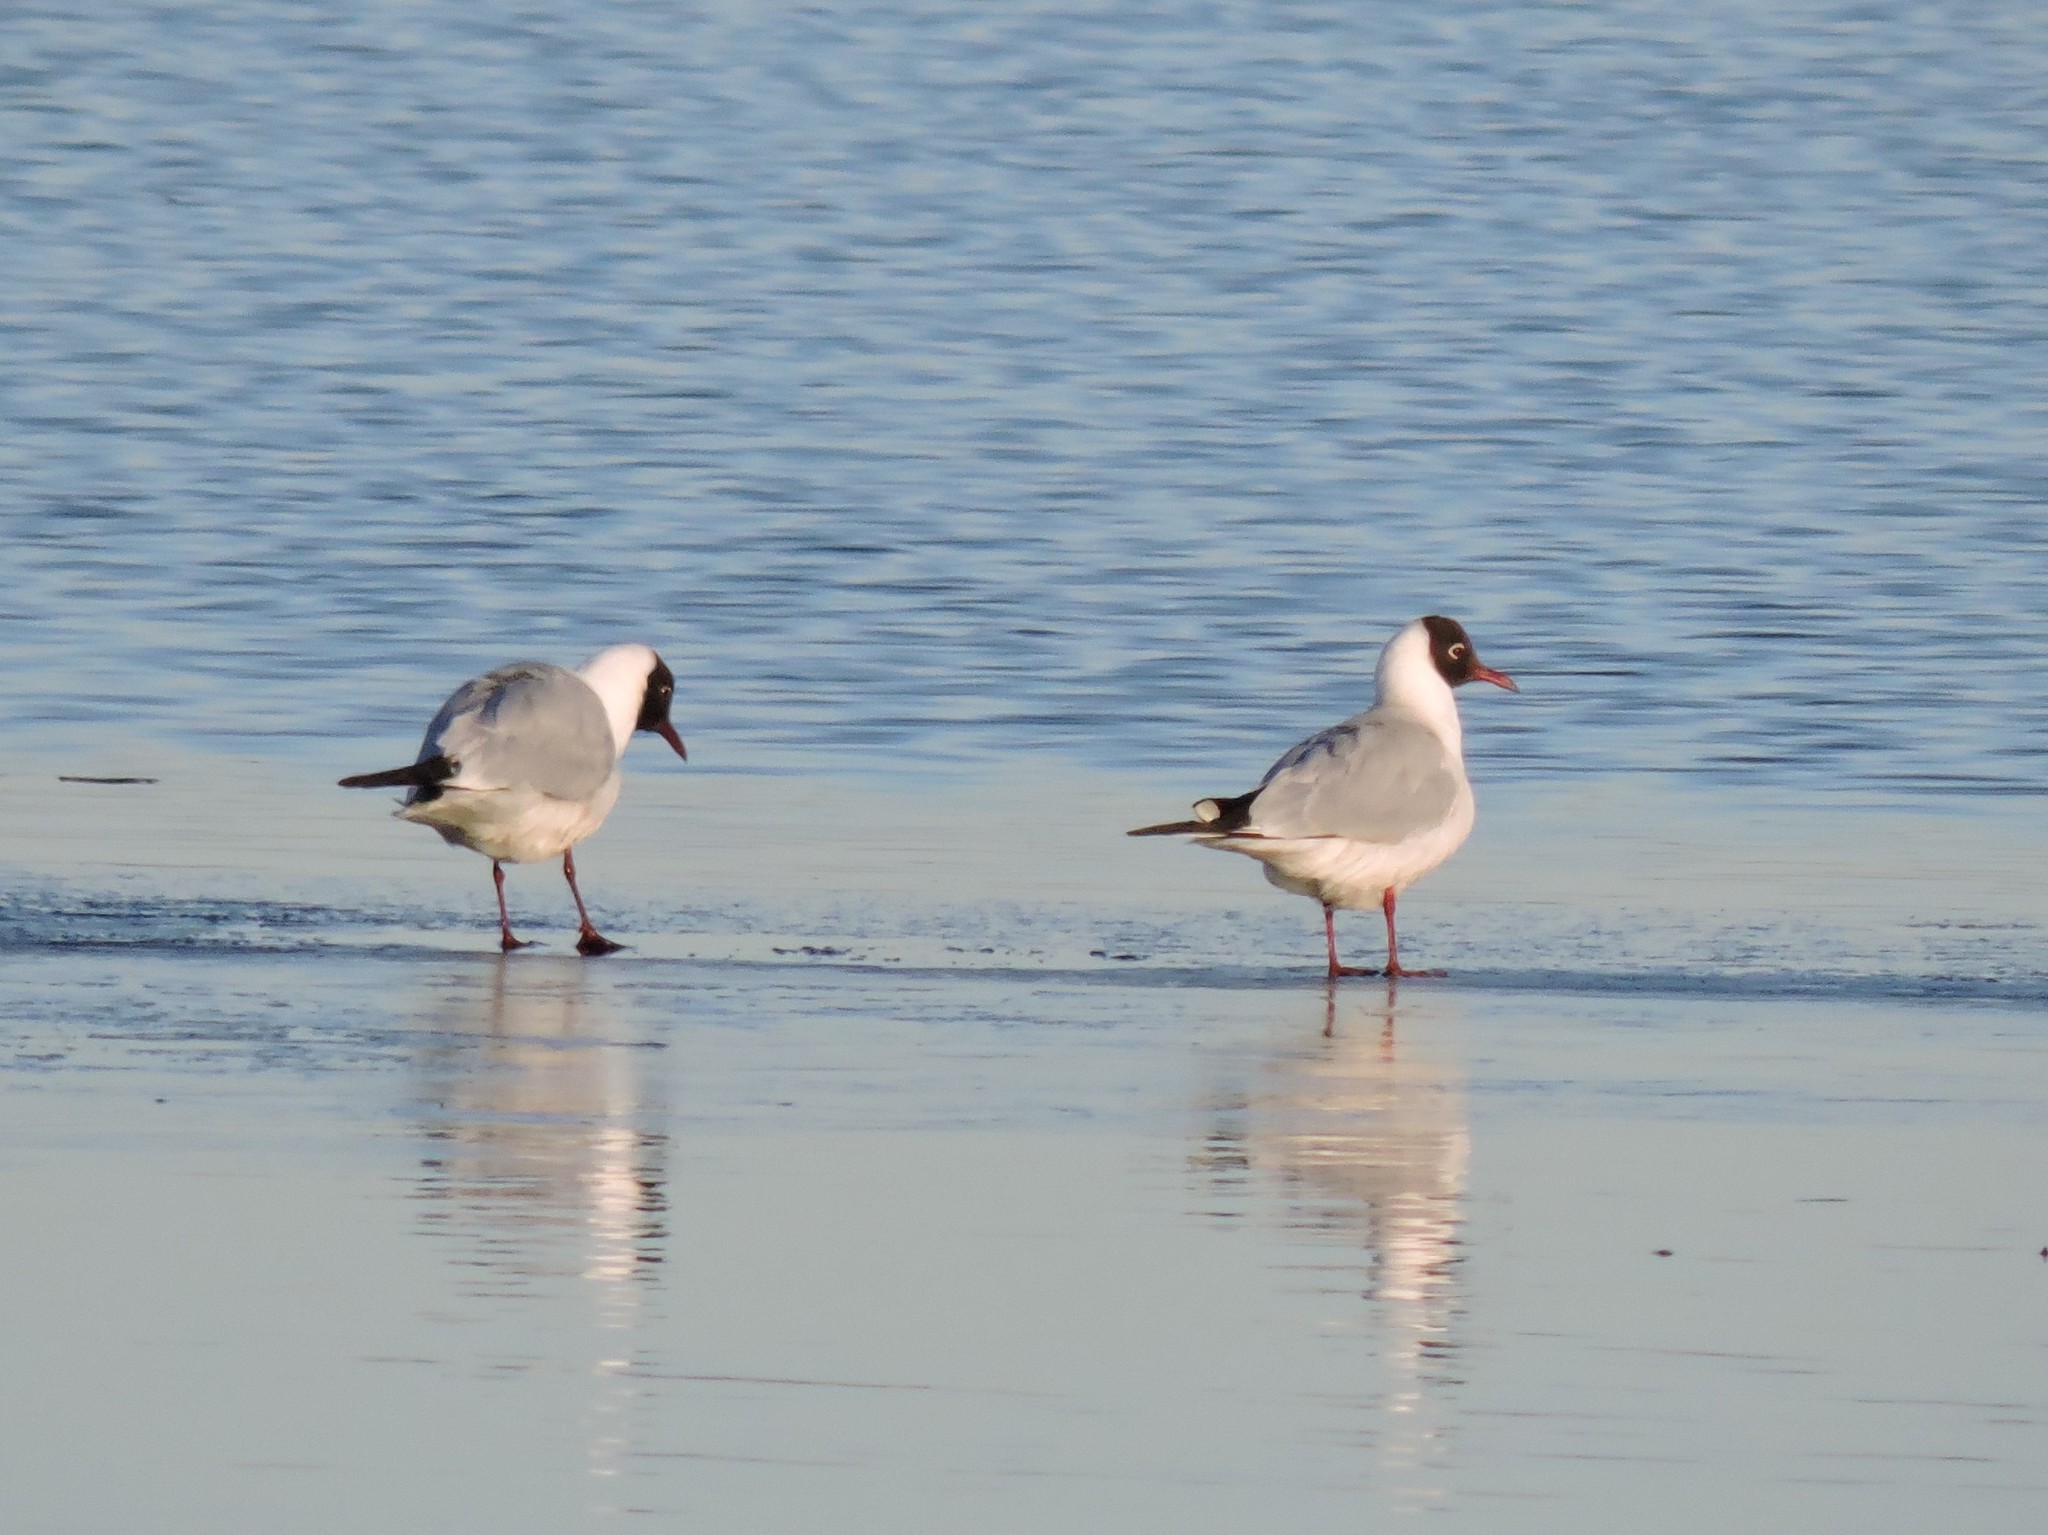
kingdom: Animalia
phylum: Chordata
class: Aves
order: Charadriiformes
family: Laridae
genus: Chroicocephalus
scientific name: Chroicocephalus ridibundus
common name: Black-headed gull
